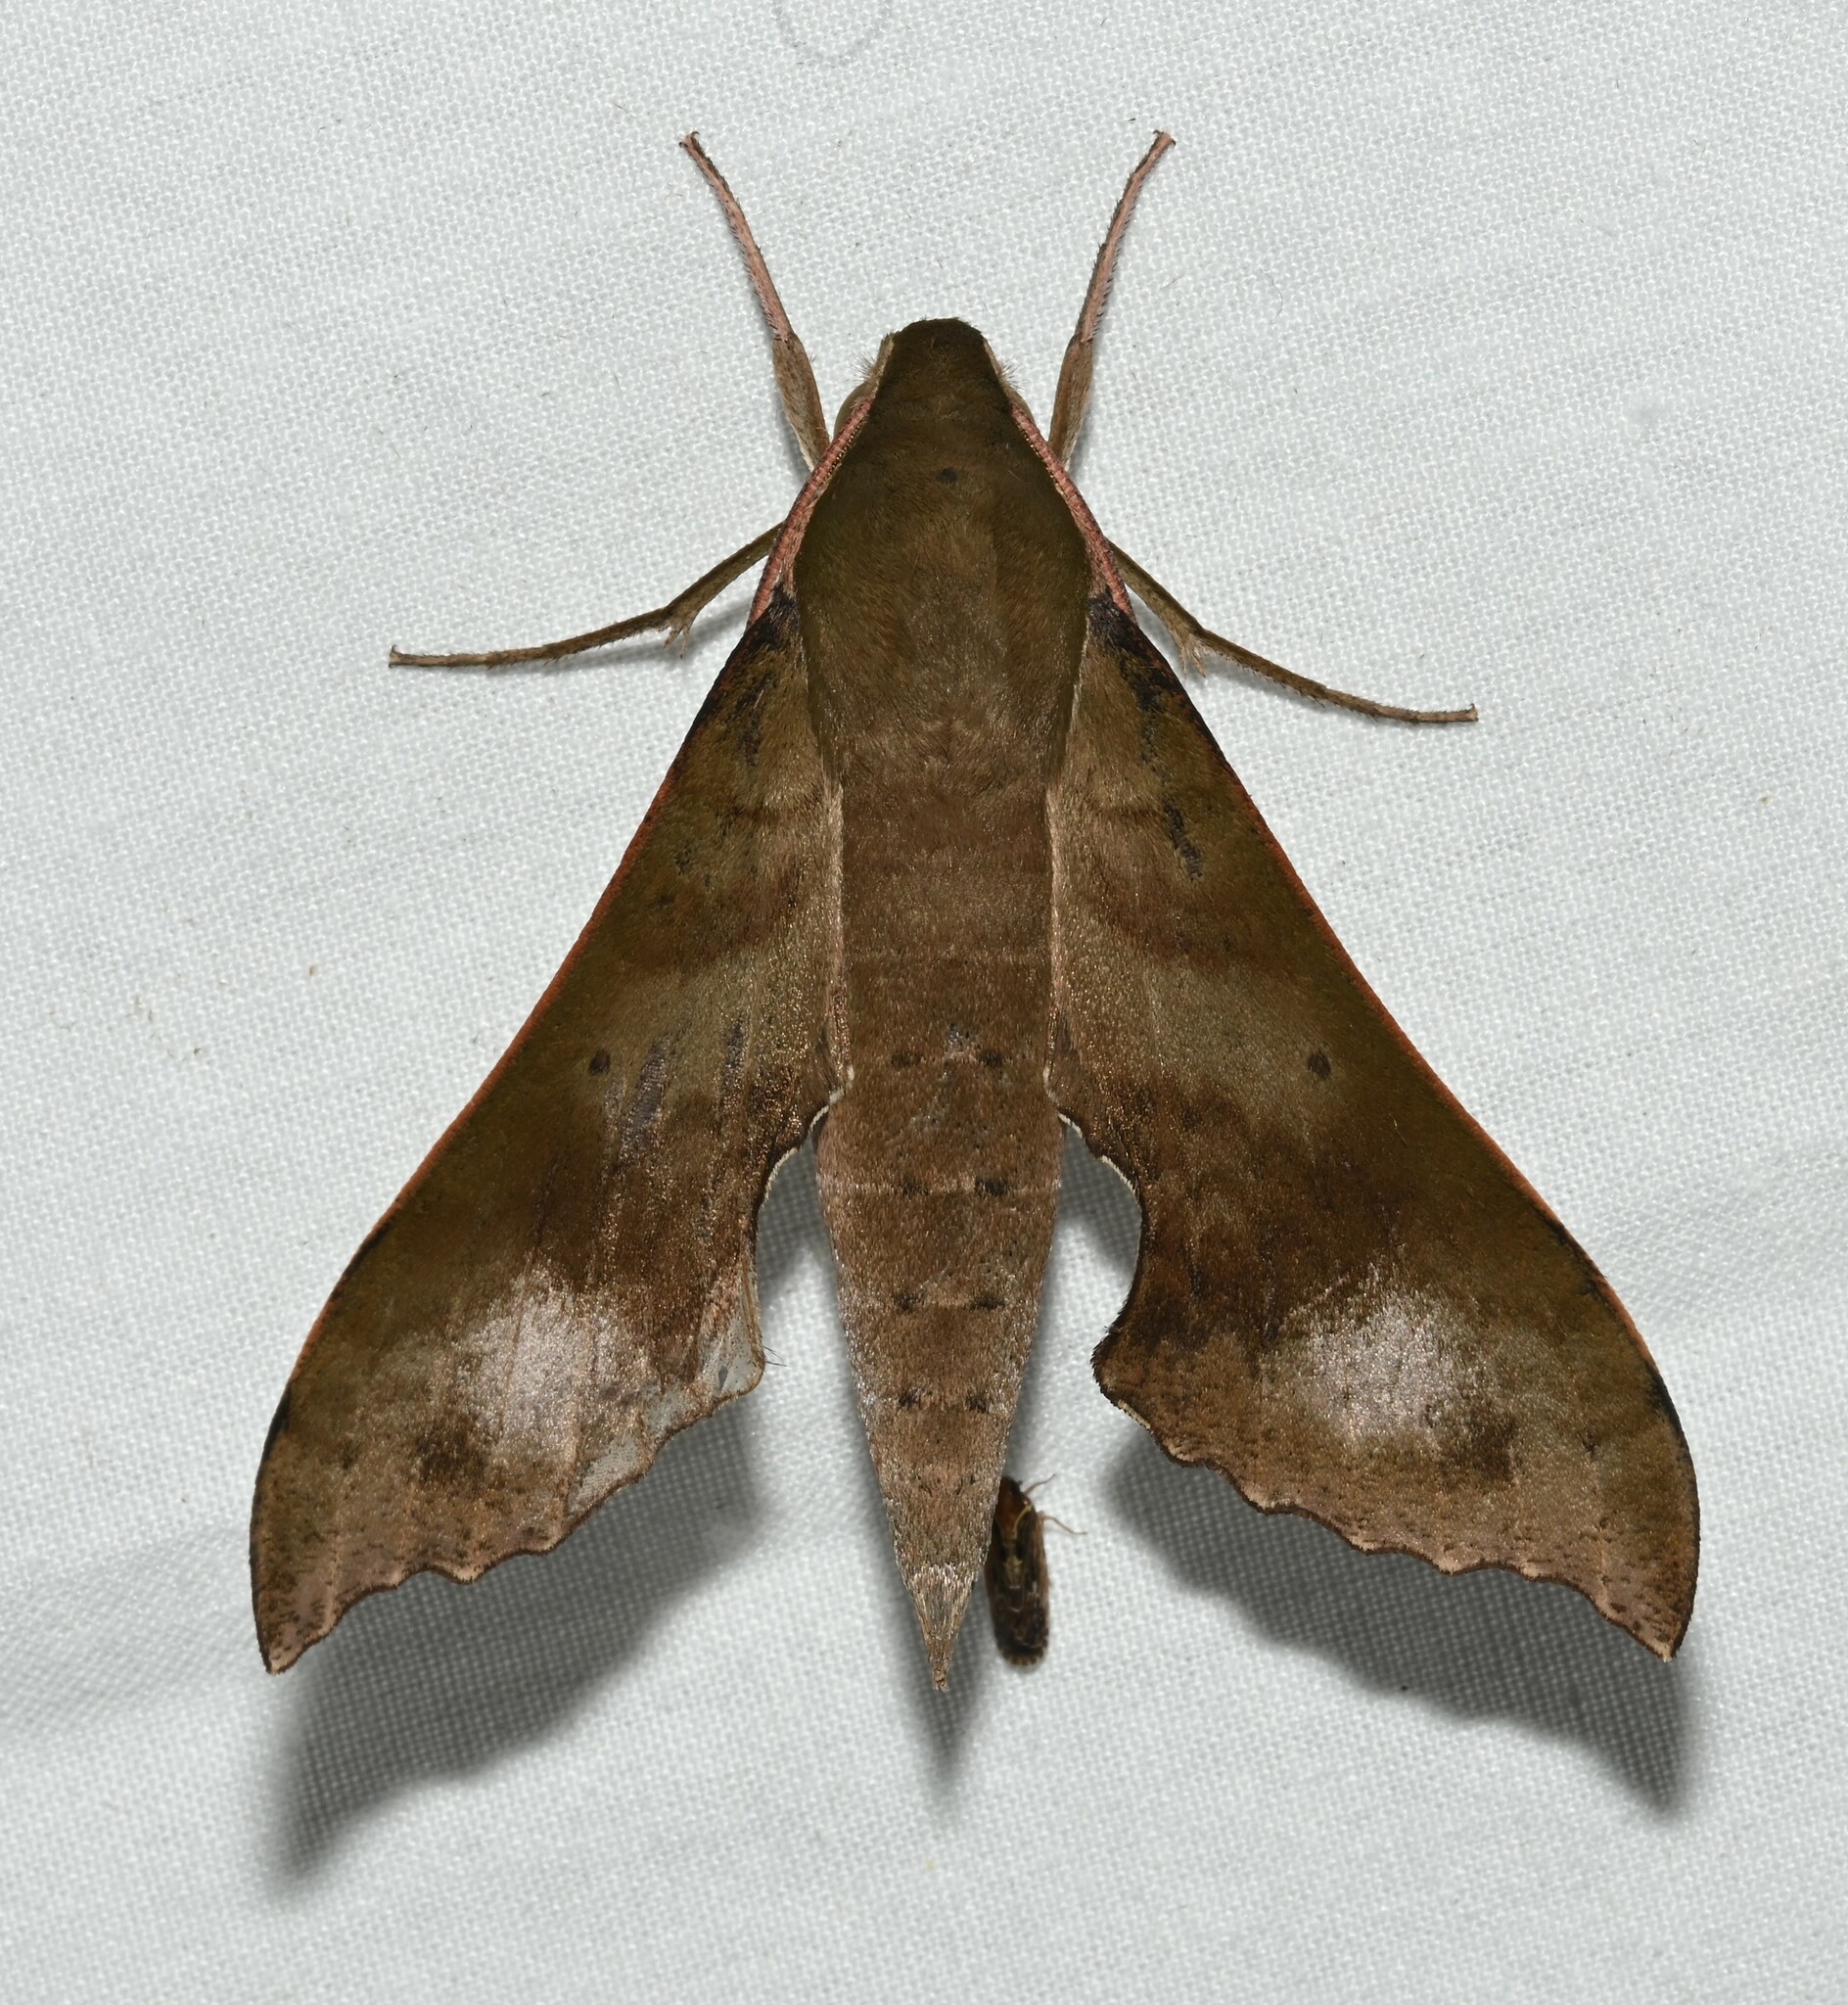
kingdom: Animalia
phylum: Arthropoda
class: Insecta
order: Lepidoptera
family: Sphingidae
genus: Xylophanes
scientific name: Xylophanes germen
